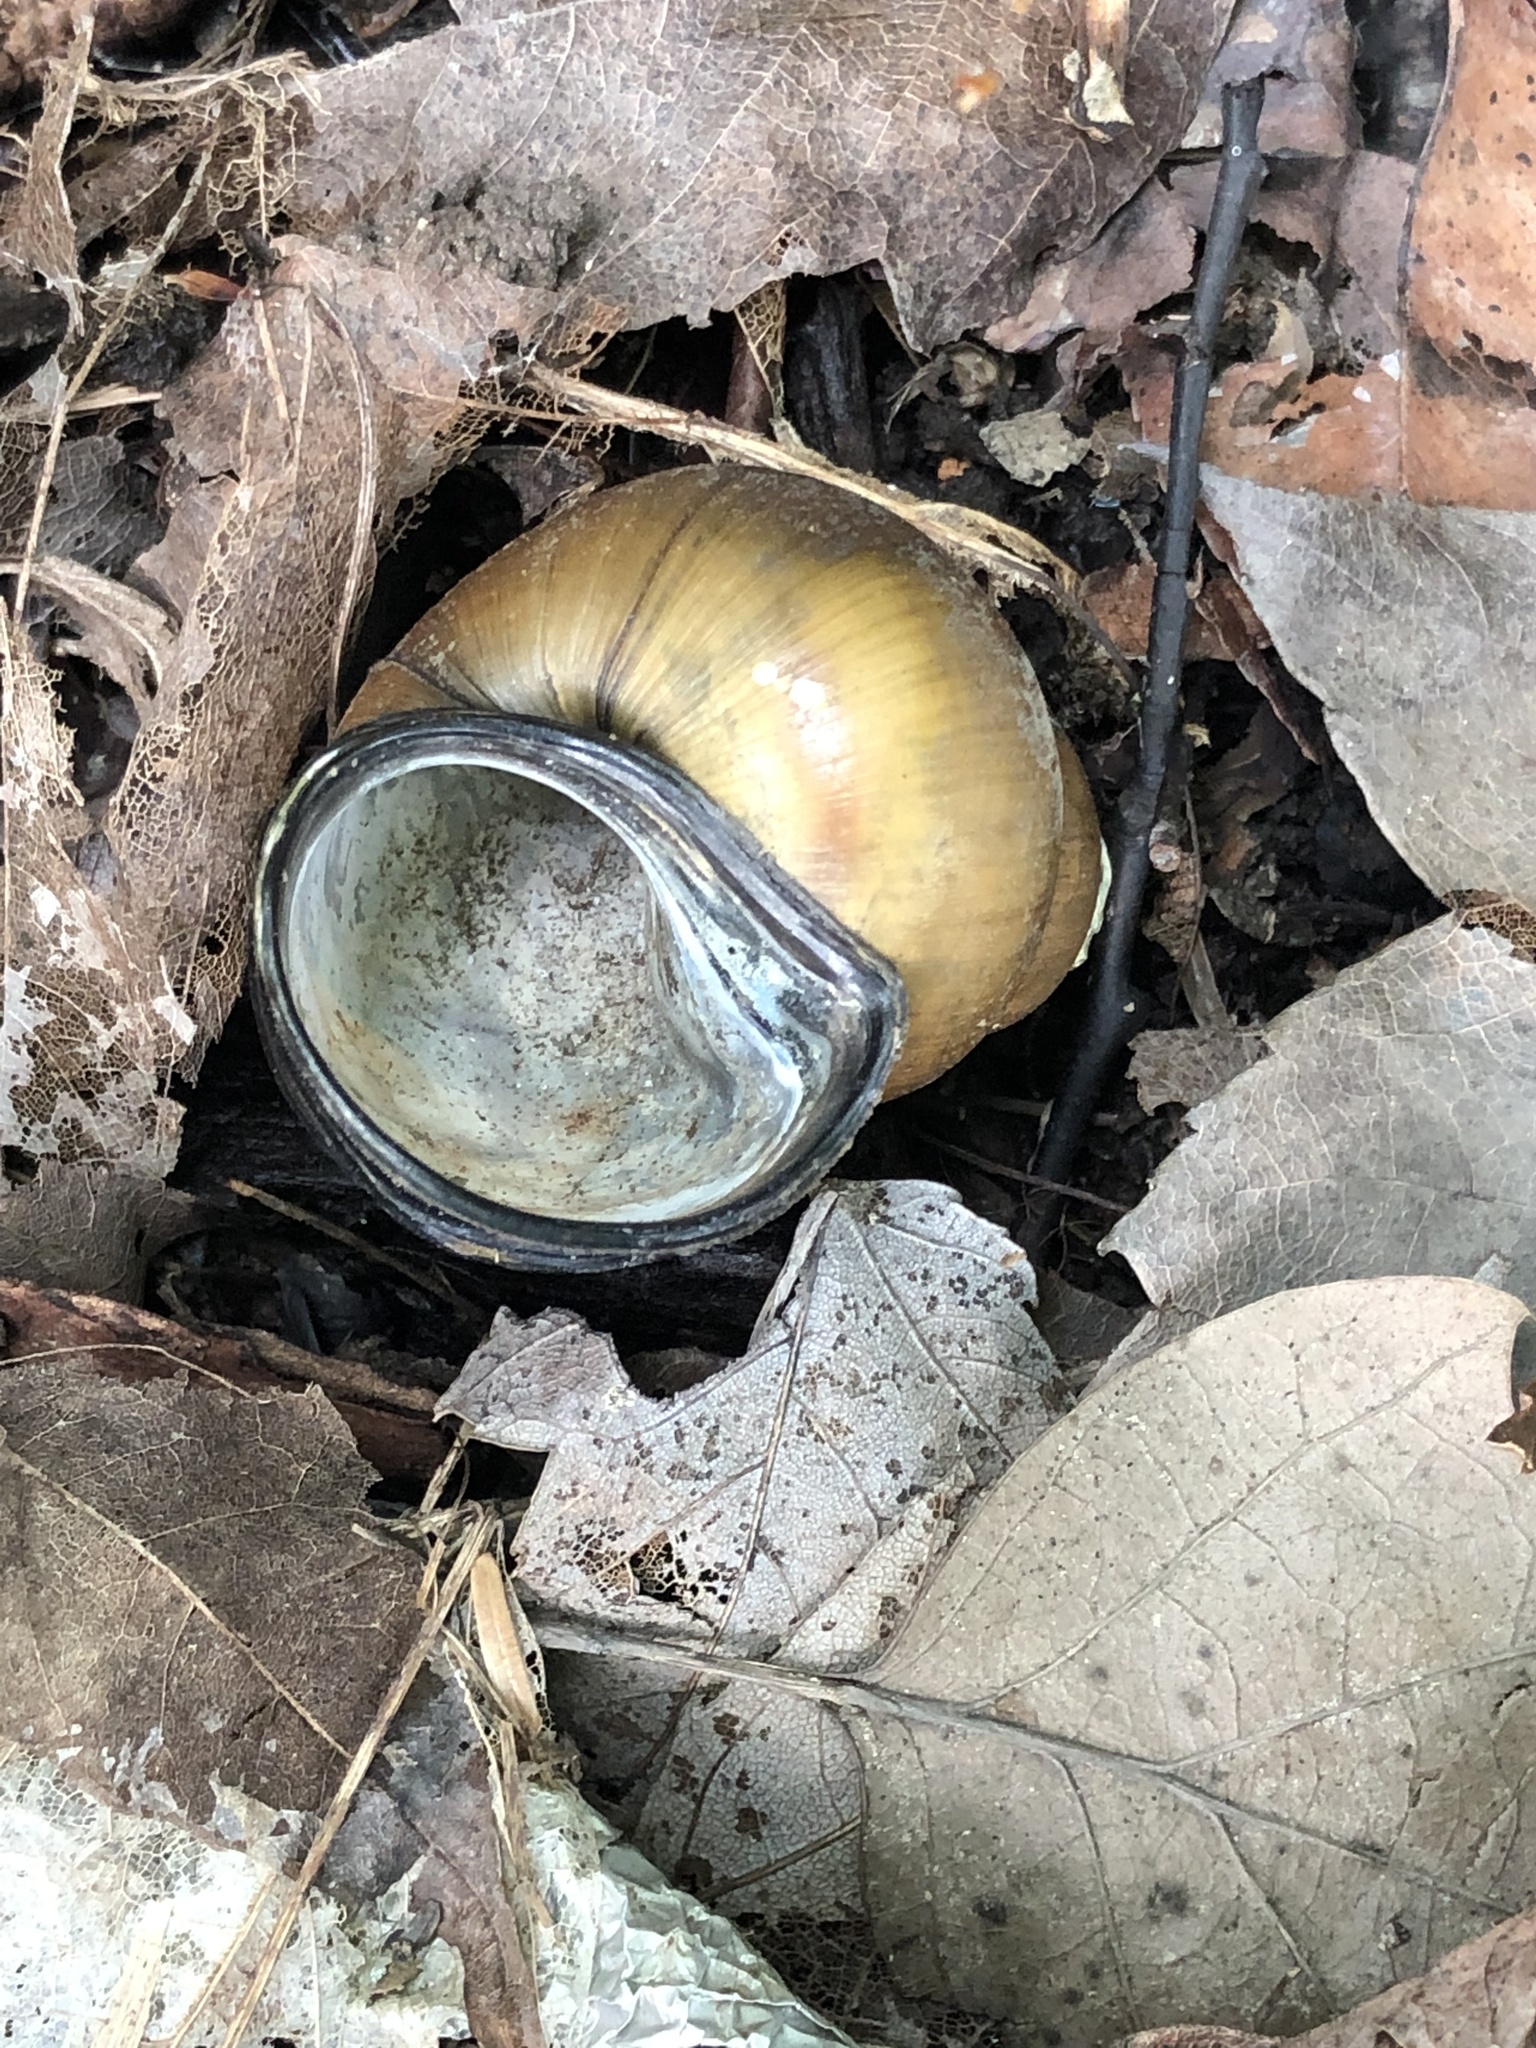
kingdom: Animalia
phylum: Mollusca
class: Gastropoda
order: Architaenioglossa
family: Viviparidae
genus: Cipangopaludina
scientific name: Cipangopaludina chinensis
